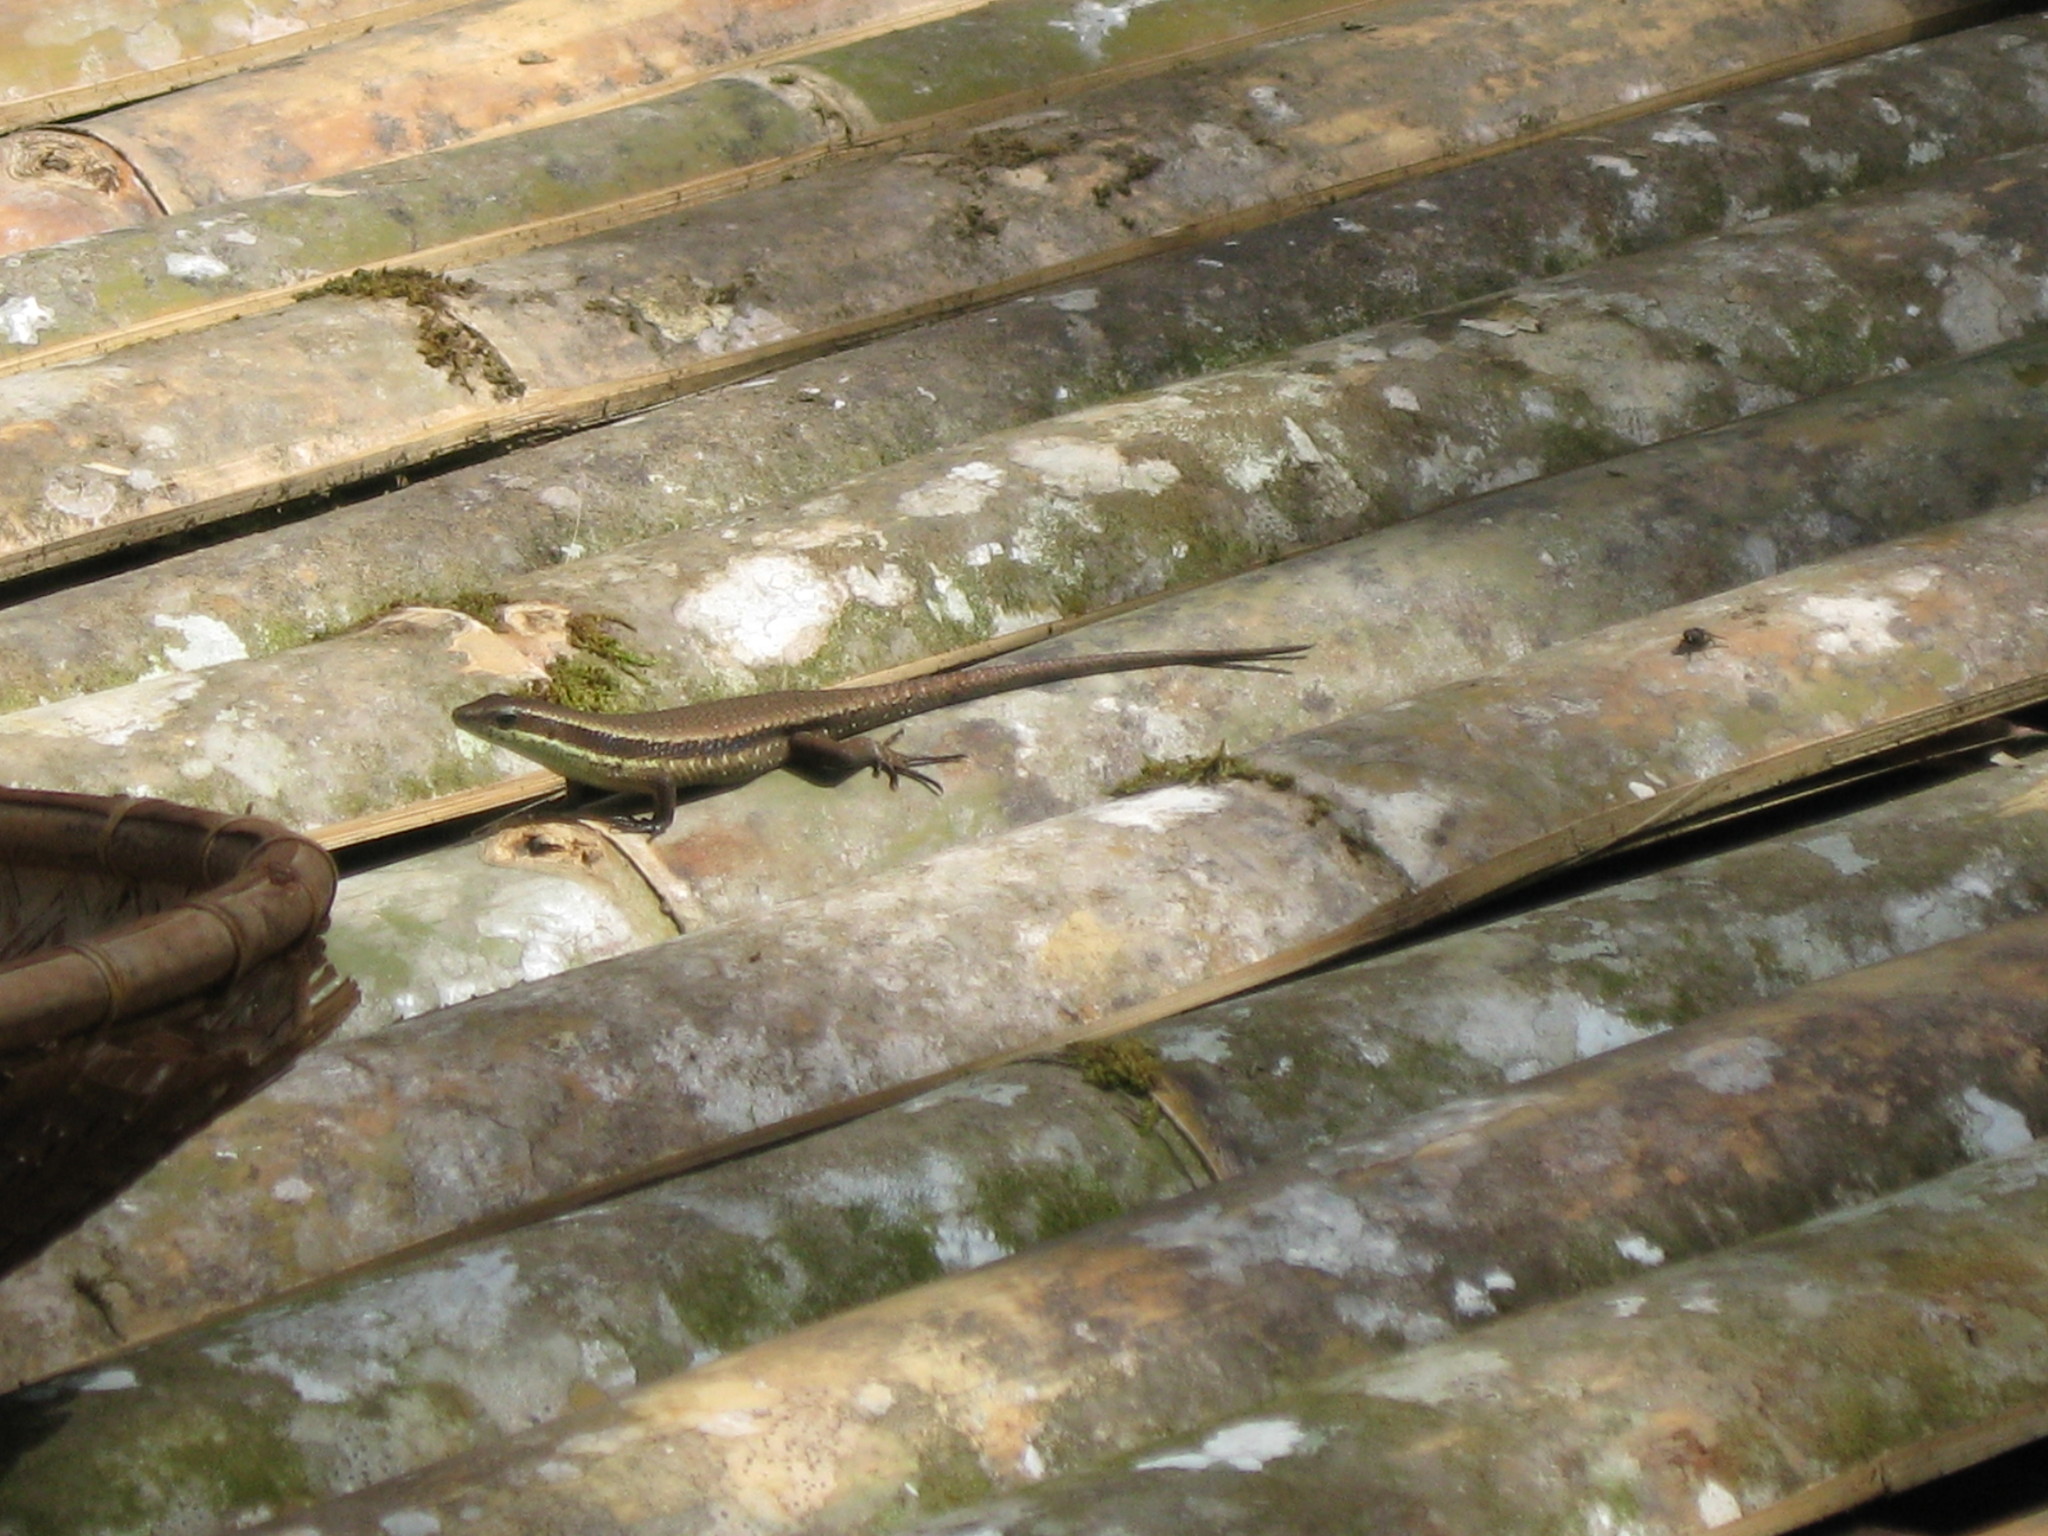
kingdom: Animalia
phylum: Chordata
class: Squamata
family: Scincidae
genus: Eutropis
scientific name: Eutropis rudis
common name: Rough mabuya
